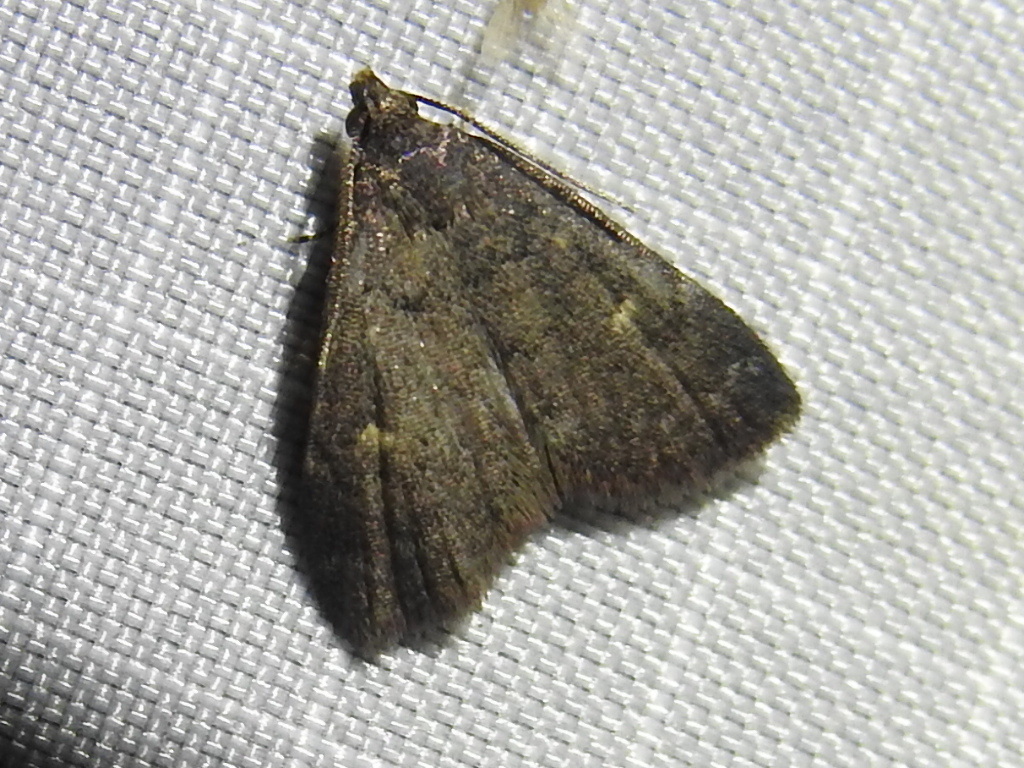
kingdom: Animalia
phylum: Arthropoda
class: Insecta
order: Lepidoptera
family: Erebidae
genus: Idia
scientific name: Idia julia
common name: Julia's idia moth
